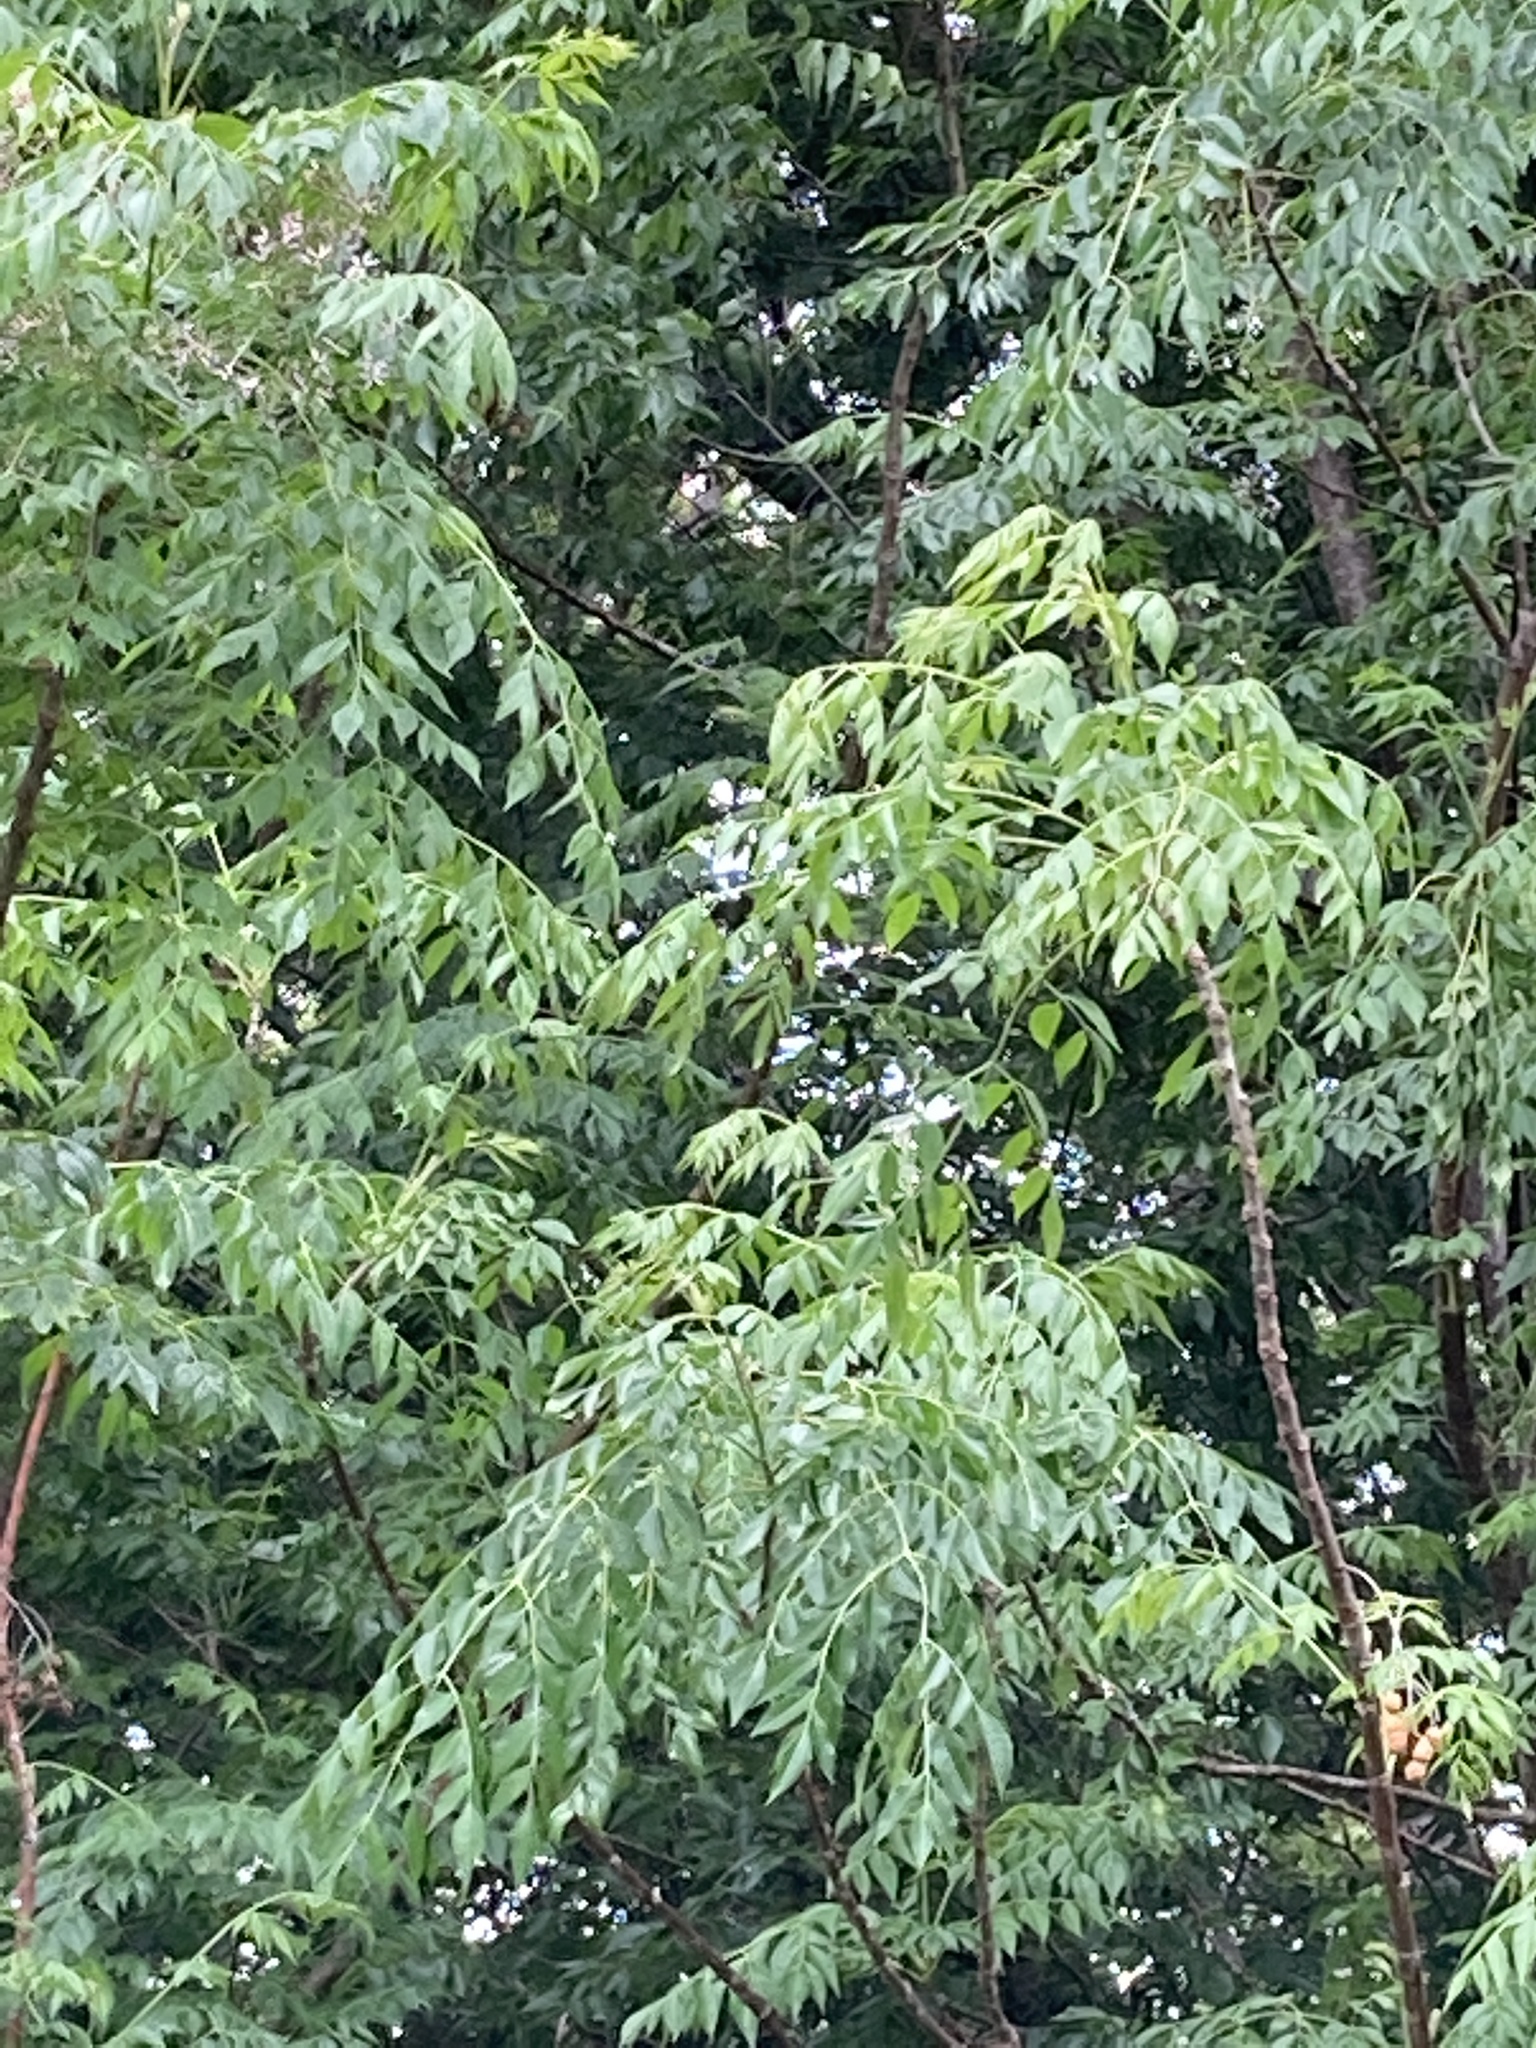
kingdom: Plantae
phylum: Tracheophyta
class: Magnoliopsida
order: Sapindales
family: Meliaceae
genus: Melia
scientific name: Melia azedarach
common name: Chinaberrytree
